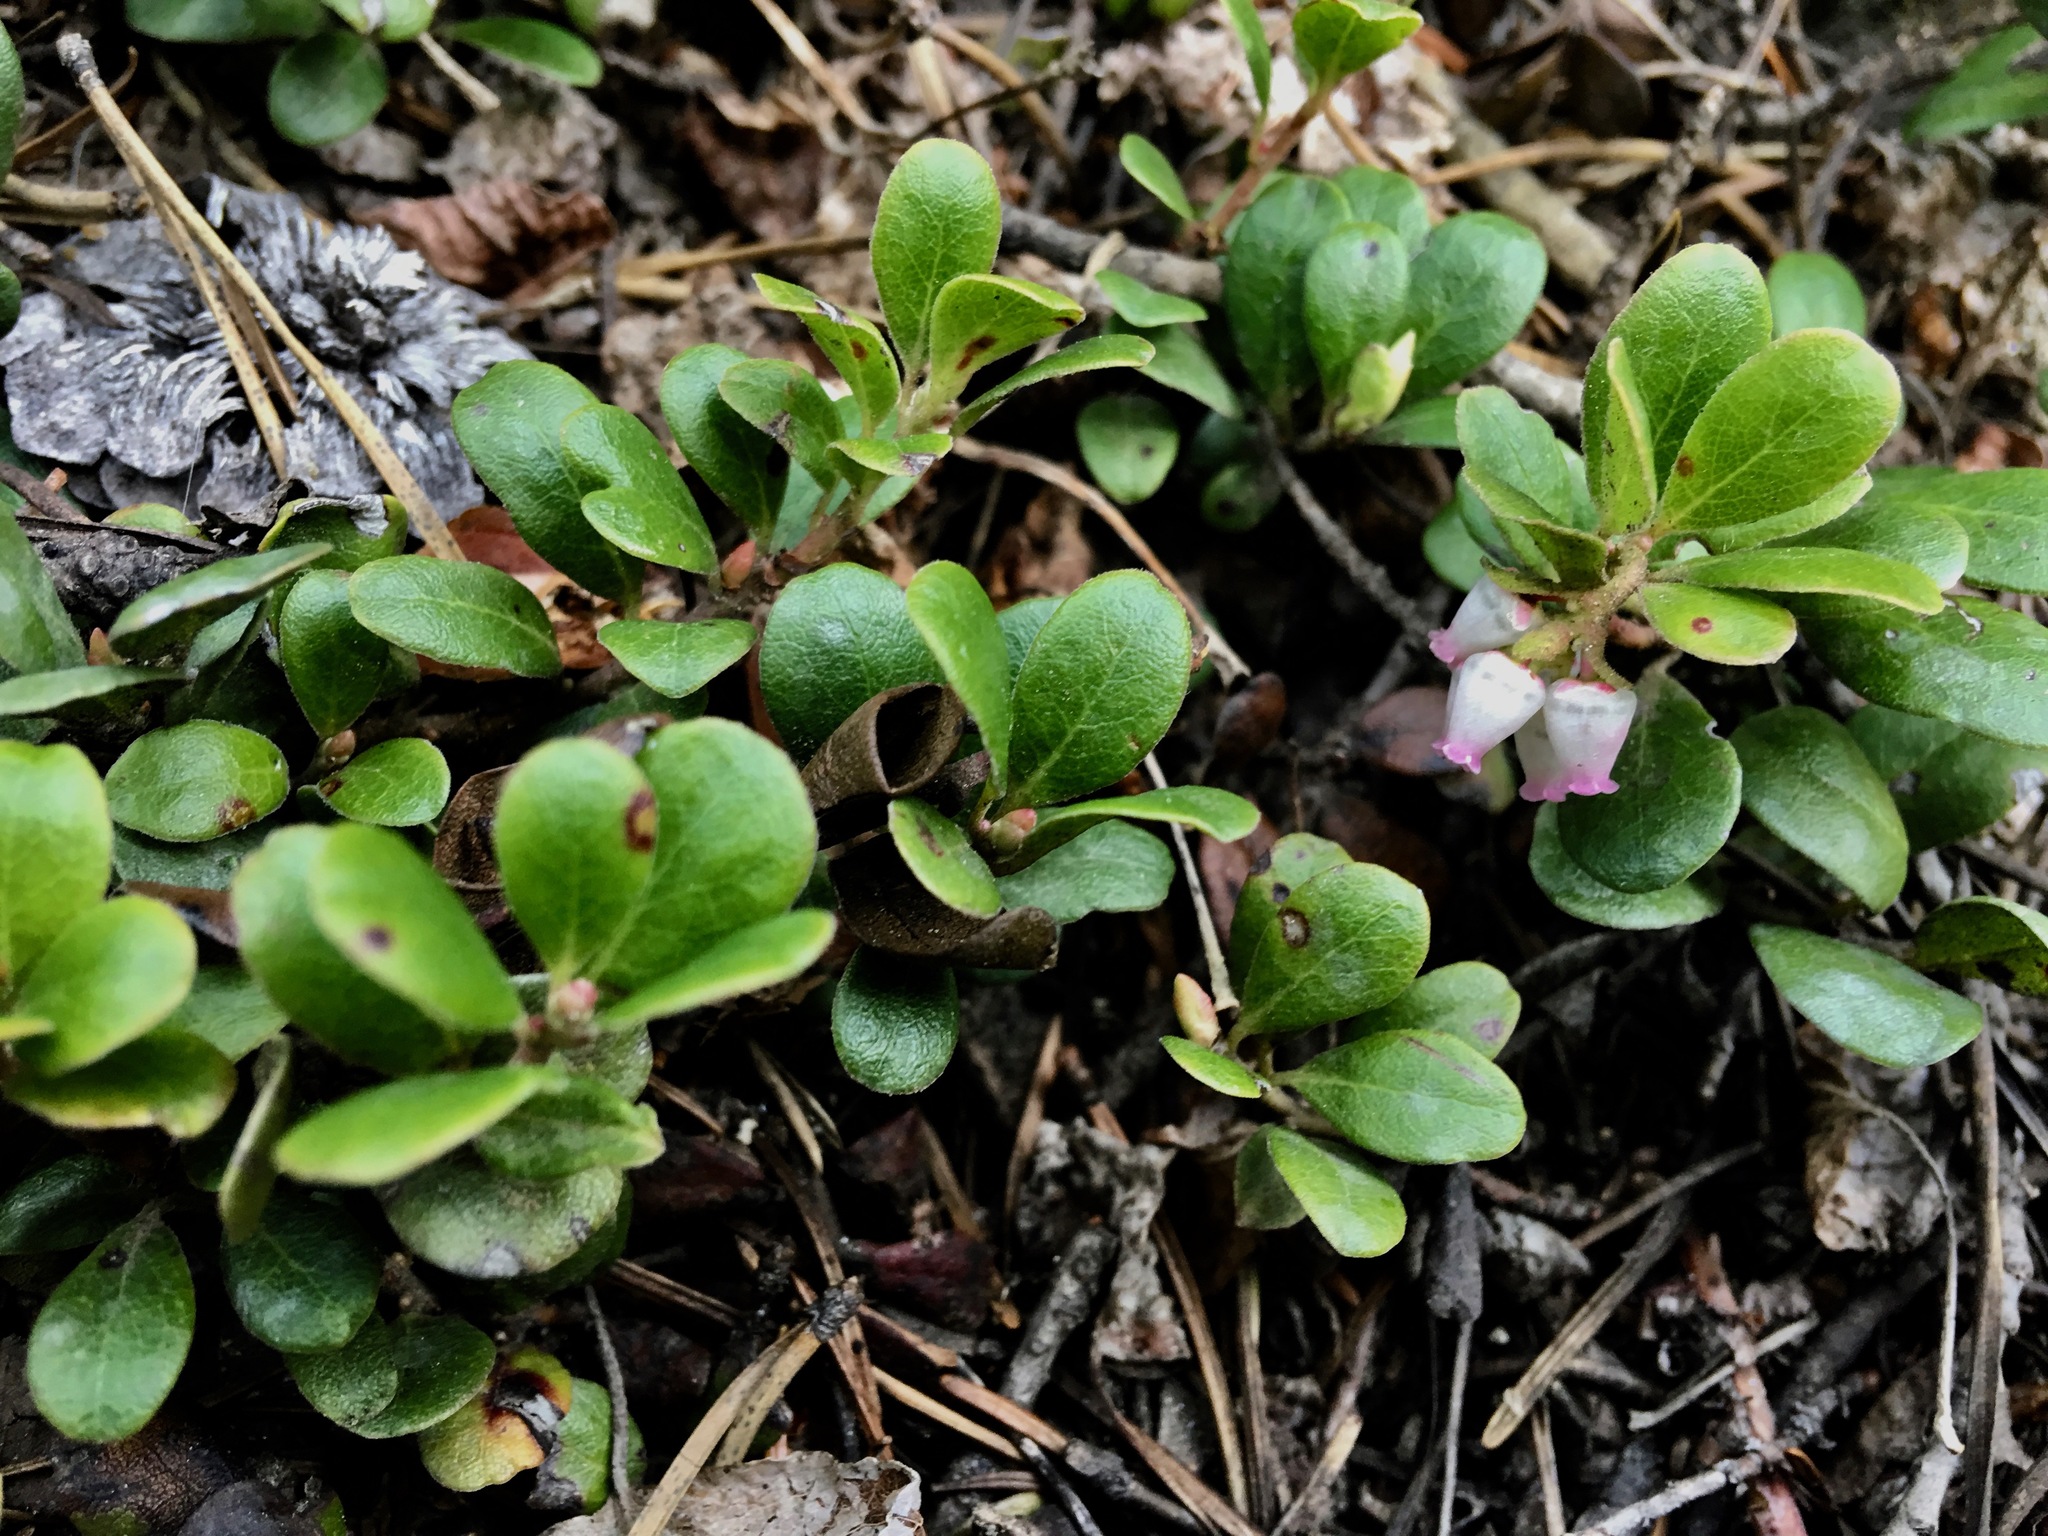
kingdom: Plantae
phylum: Tracheophyta
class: Magnoliopsida
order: Ericales
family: Ericaceae
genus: Arctostaphylos
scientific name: Arctostaphylos uva-ursi
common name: Bearberry
